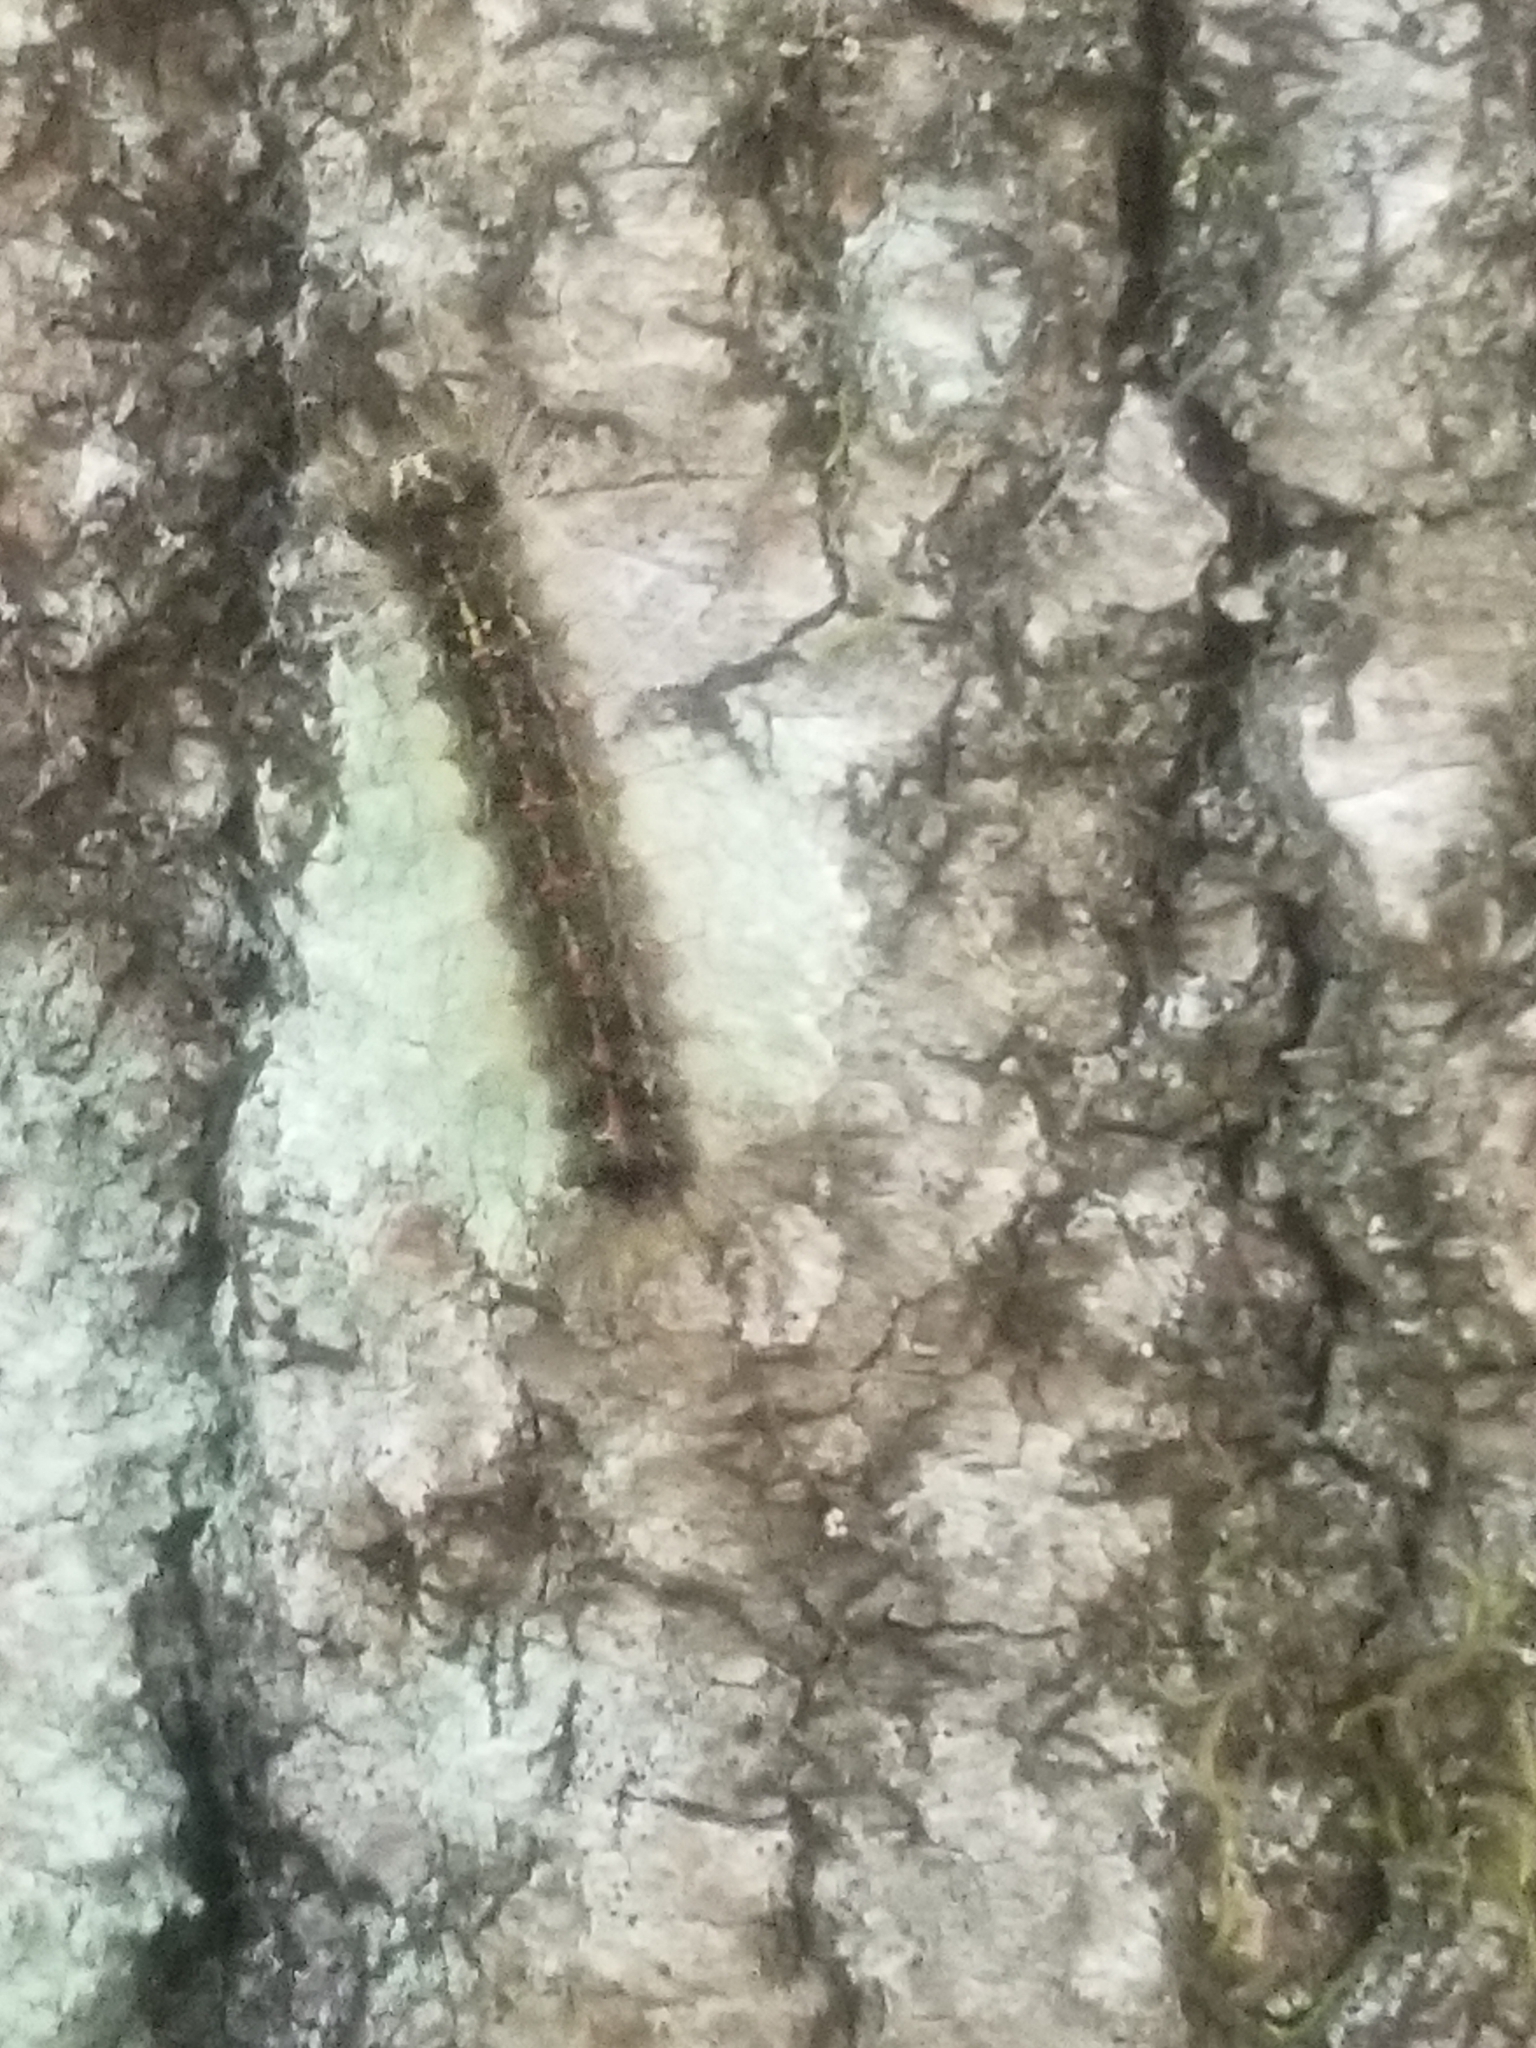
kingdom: Animalia
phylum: Arthropoda
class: Insecta
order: Lepidoptera
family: Erebidae
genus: Lymantria
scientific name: Lymantria dispar
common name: Gypsy moth
